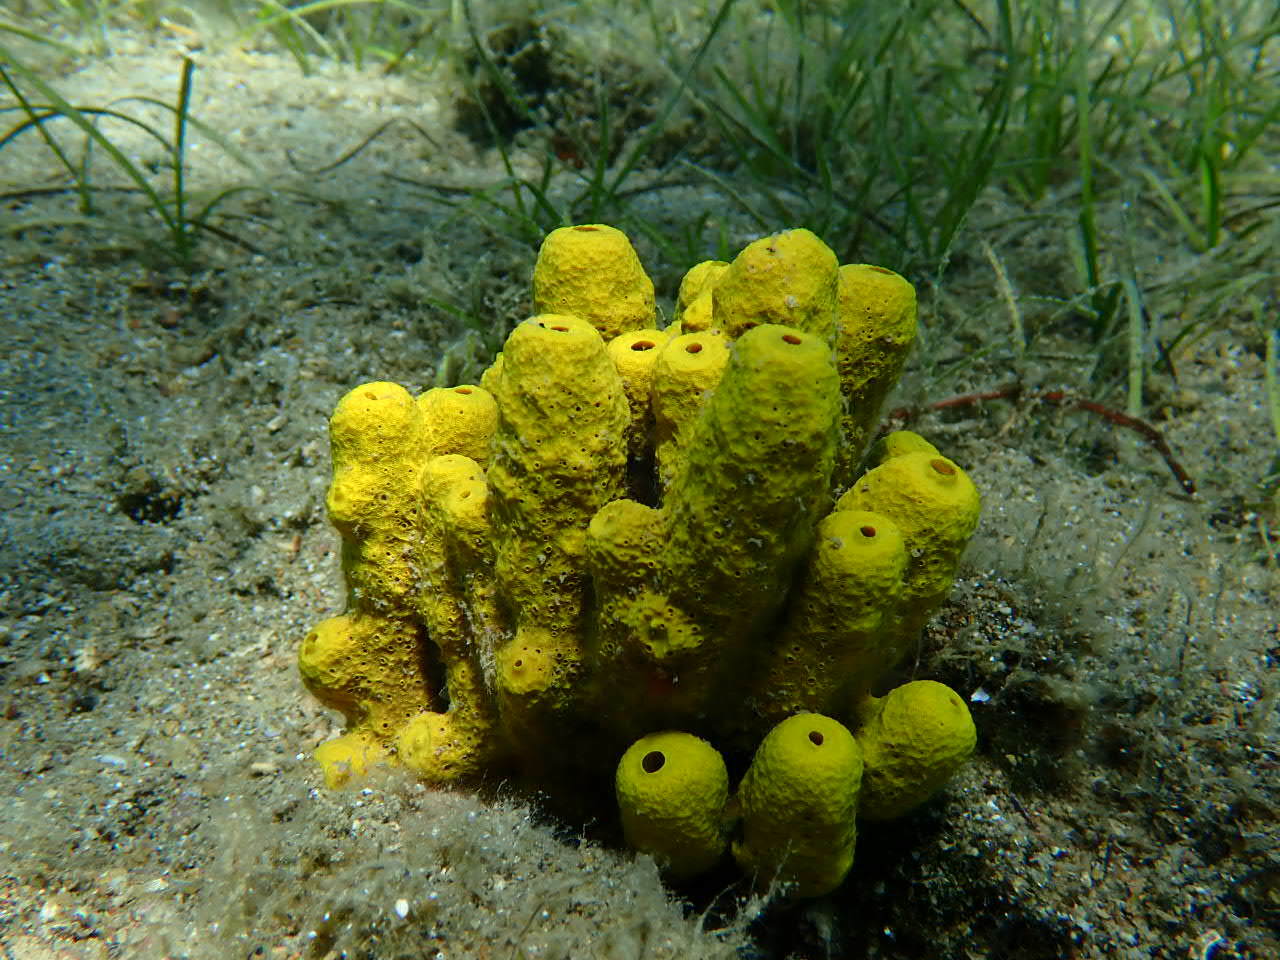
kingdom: Animalia
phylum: Porifera
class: Demospongiae
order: Verongiida
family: Aplysinidae
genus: Aplysina
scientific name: Aplysina aerophoba
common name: Aureate sponge
